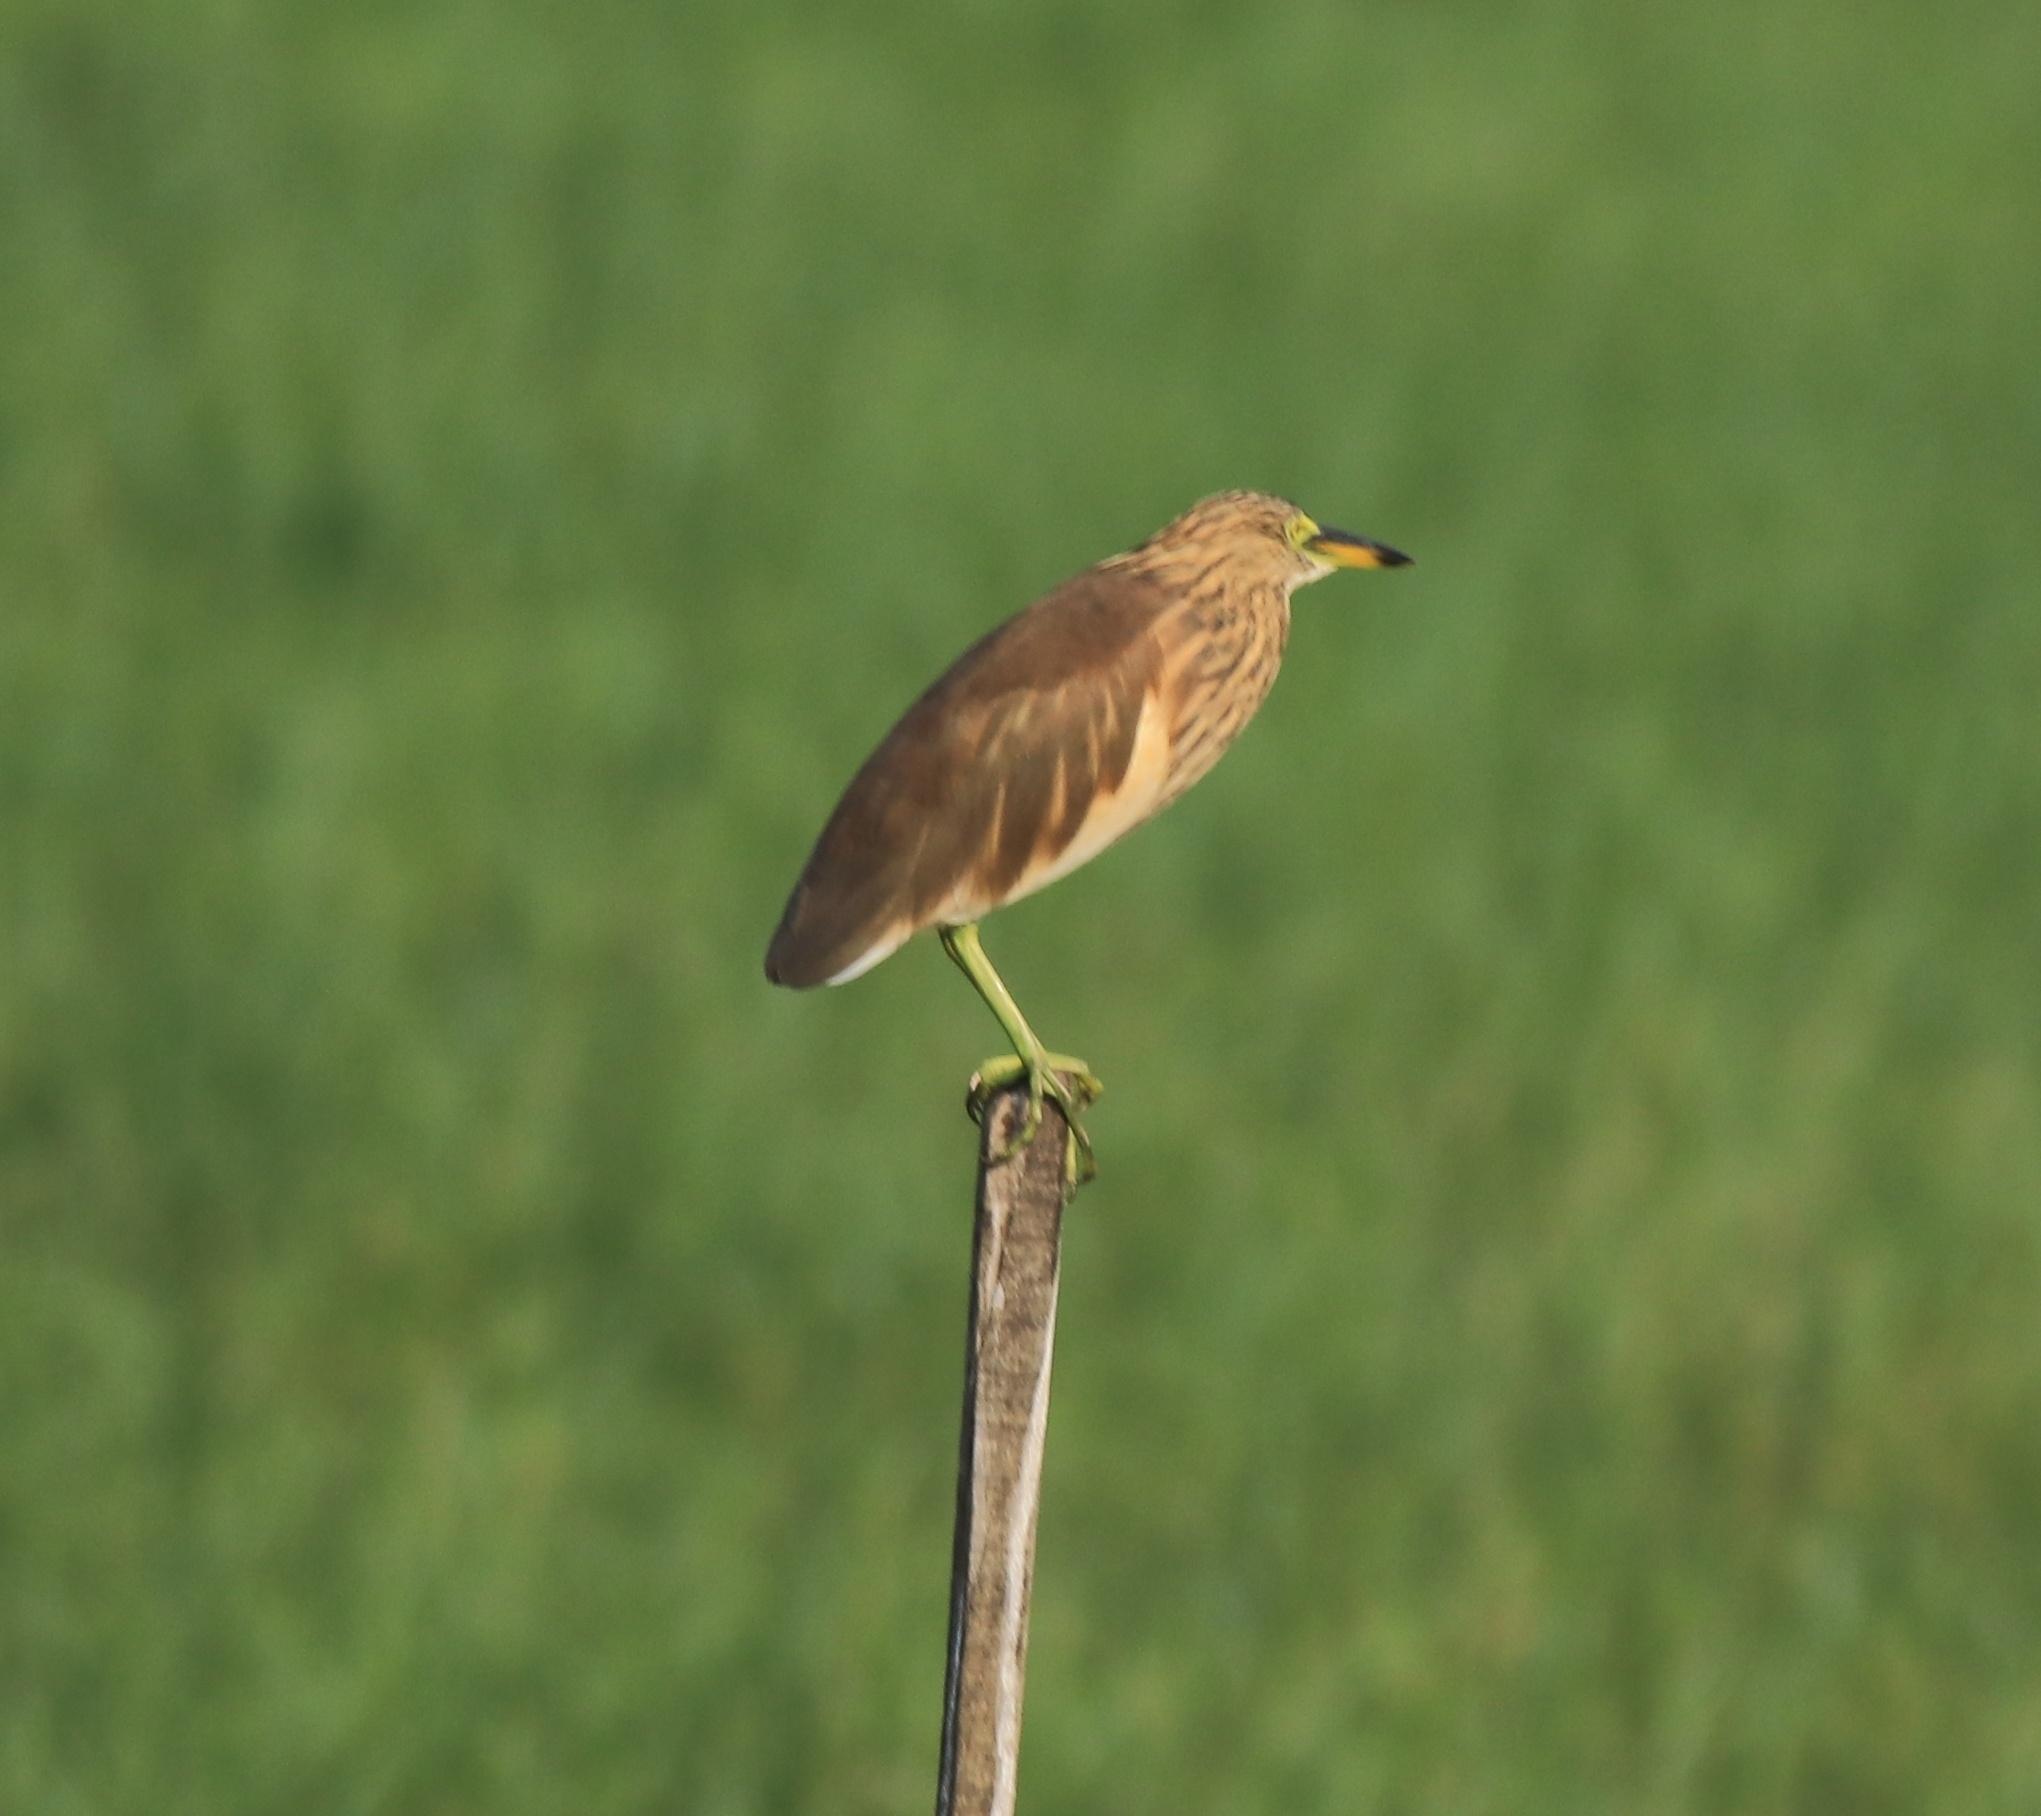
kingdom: Animalia
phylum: Chordata
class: Aves
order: Pelecaniformes
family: Ardeidae
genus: Ardeola
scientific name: Ardeola grayii
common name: Indian pond heron
